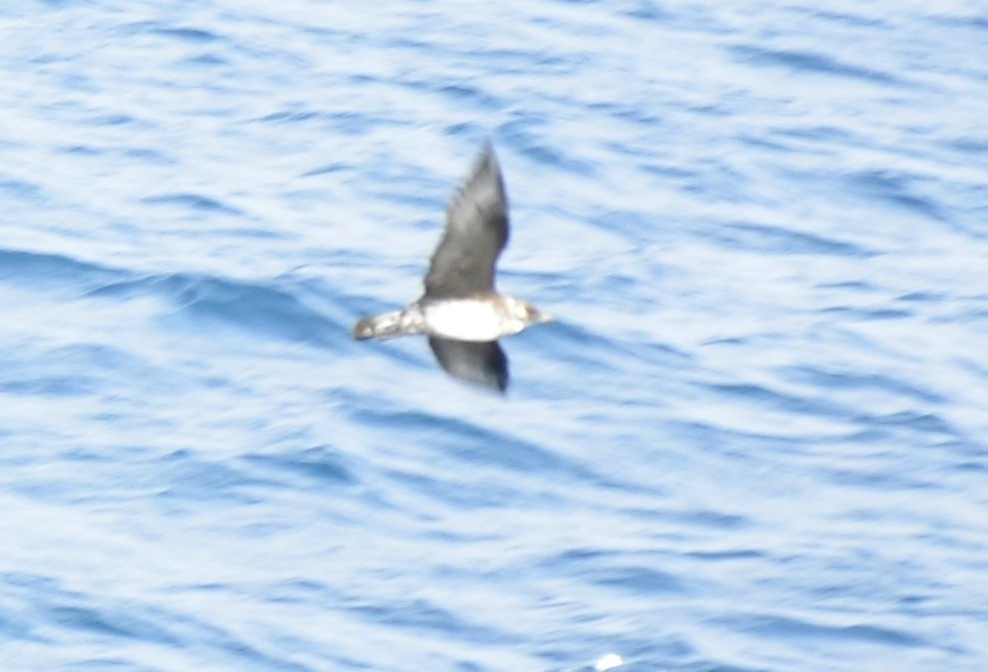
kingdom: Animalia
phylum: Chordata
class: Aves
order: Charadriiformes
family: Stercorariidae
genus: Stercorarius
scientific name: Stercorarius pomarinus
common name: Pomarine jaeger
